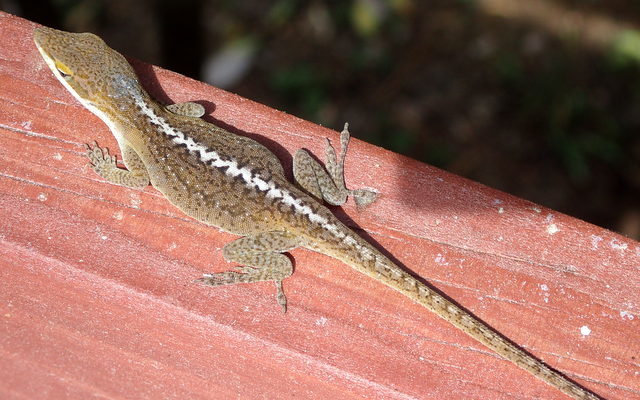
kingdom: Animalia
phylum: Chordata
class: Squamata
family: Dactyloidae
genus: Anolis
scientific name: Anolis carolinensis
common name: Green anole
